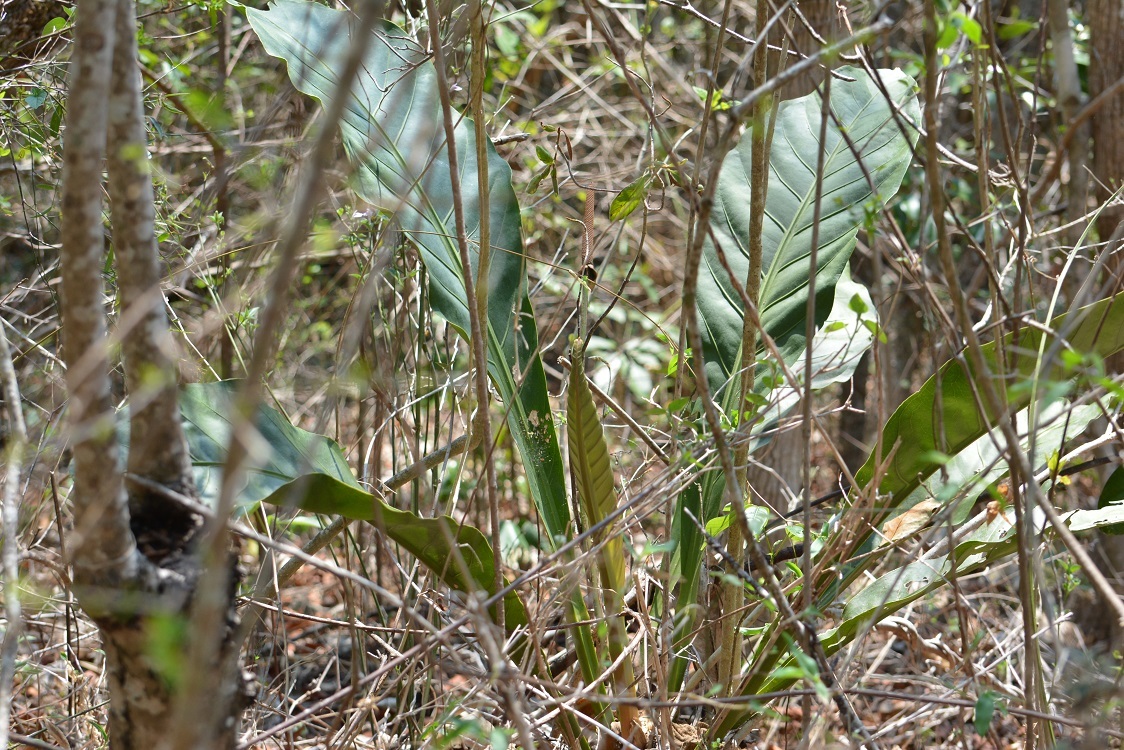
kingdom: Plantae
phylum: Tracheophyta
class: Liliopsida
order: Alismatales
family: Araceae
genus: Anthurium
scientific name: Anthurium schlechtendalii
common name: Laceleaf
